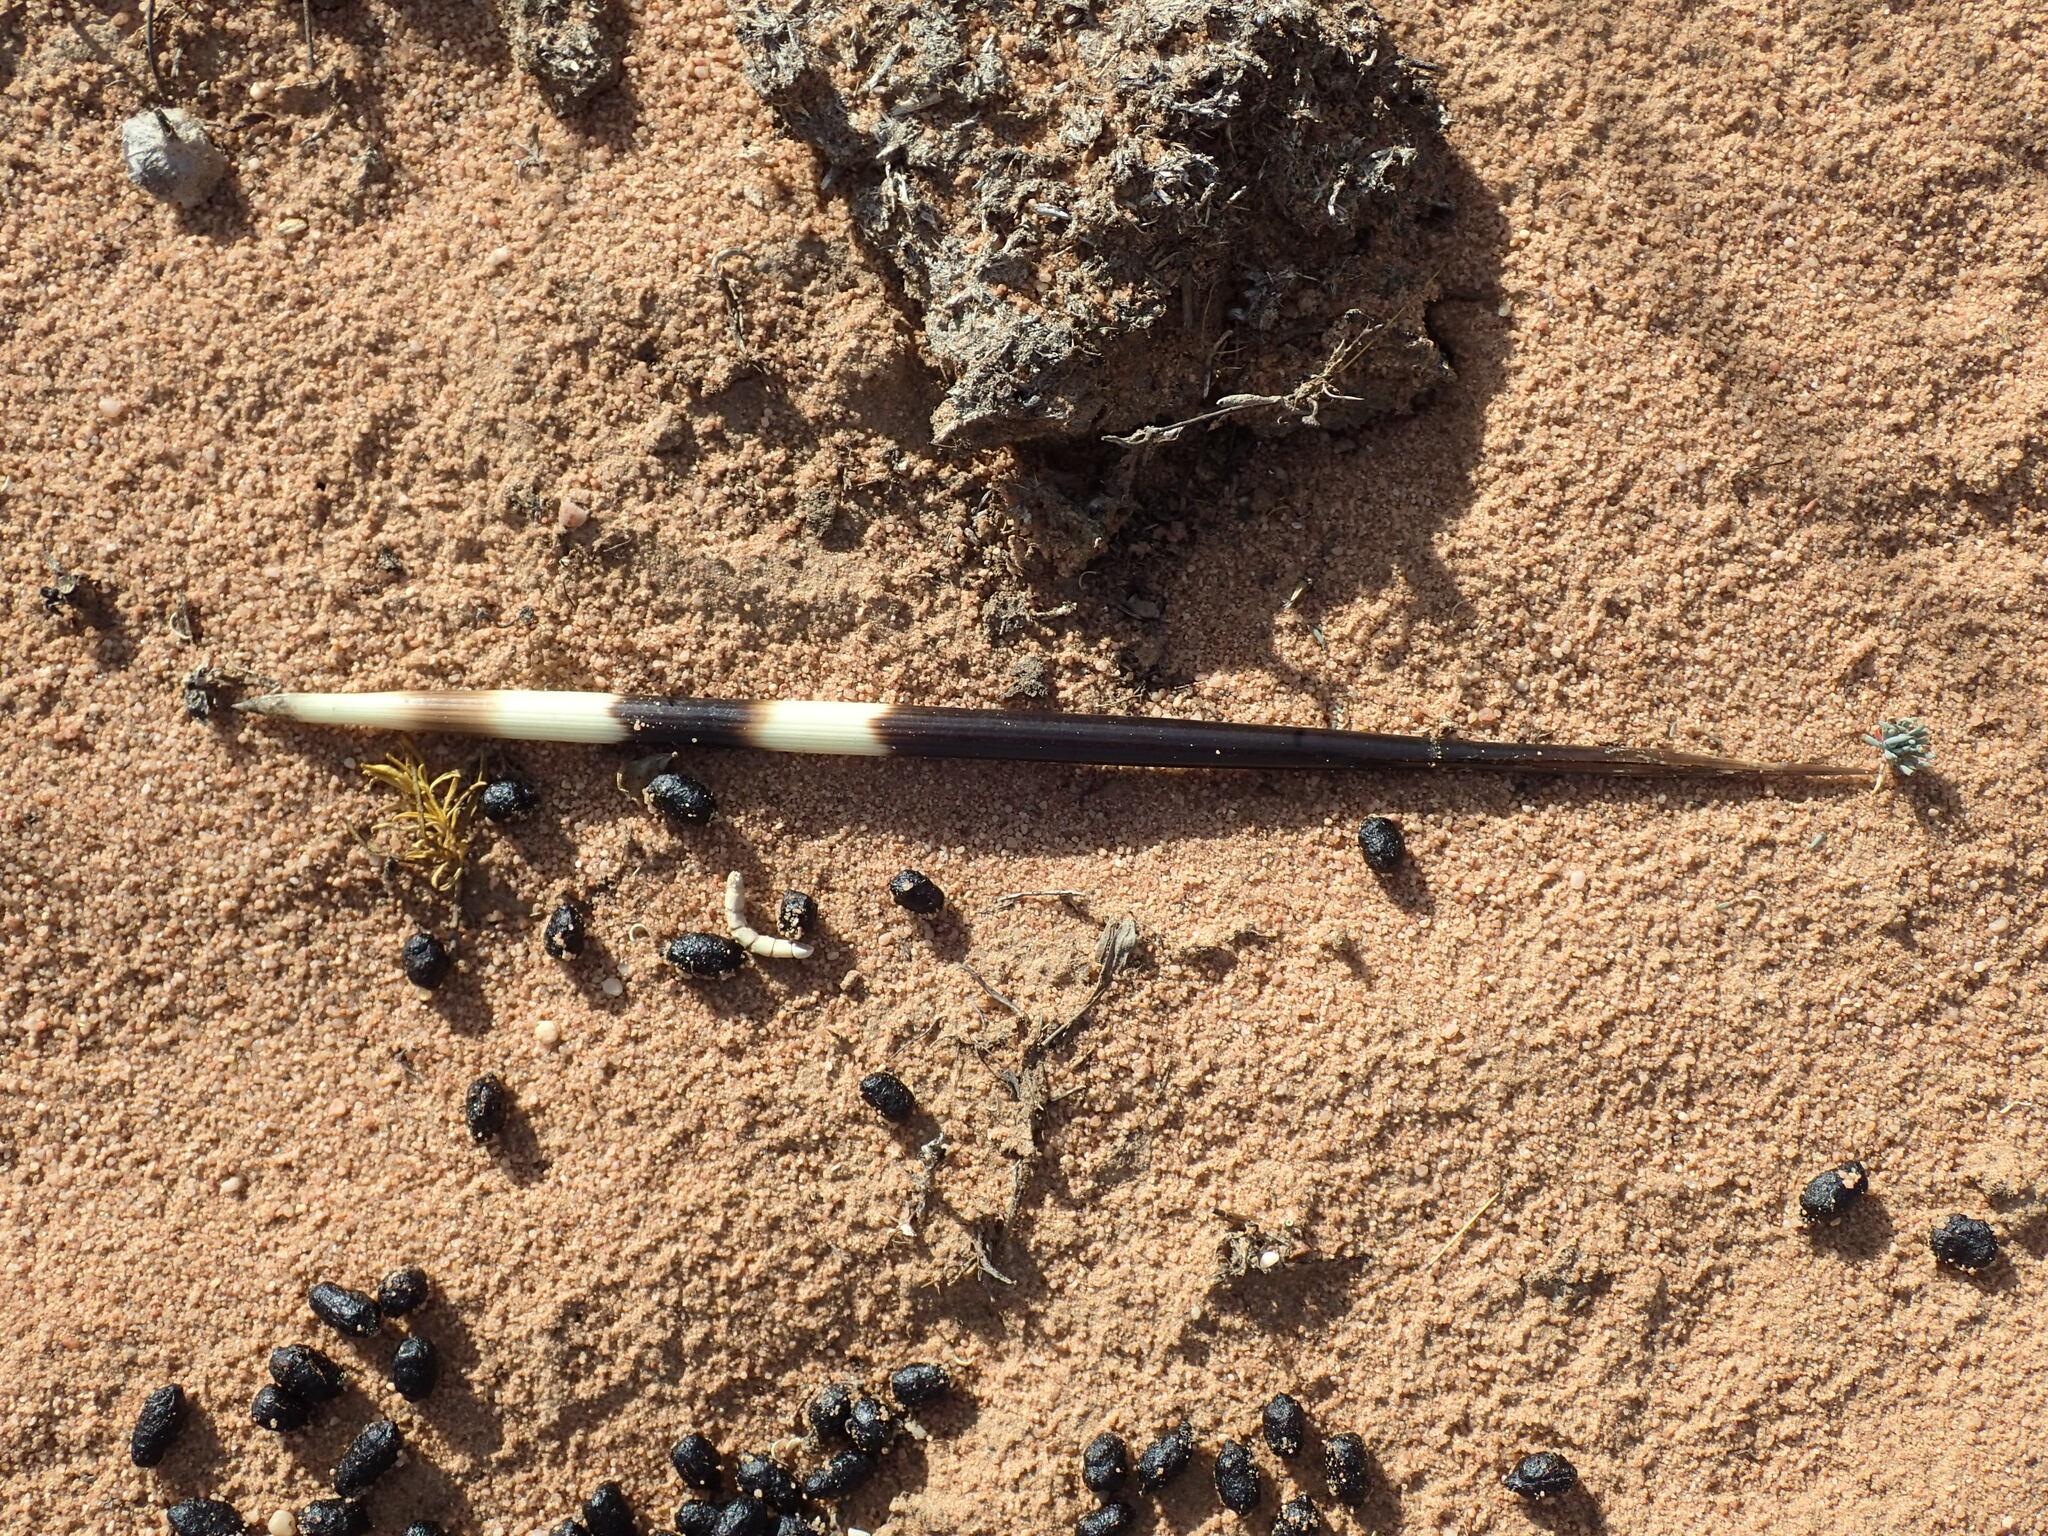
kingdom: Animalia
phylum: Chordata
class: Mammalia
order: Rodentia
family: Hystricidae
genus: Hystrix
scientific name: Hystrix africaeaustralis
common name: Cape porcupine
